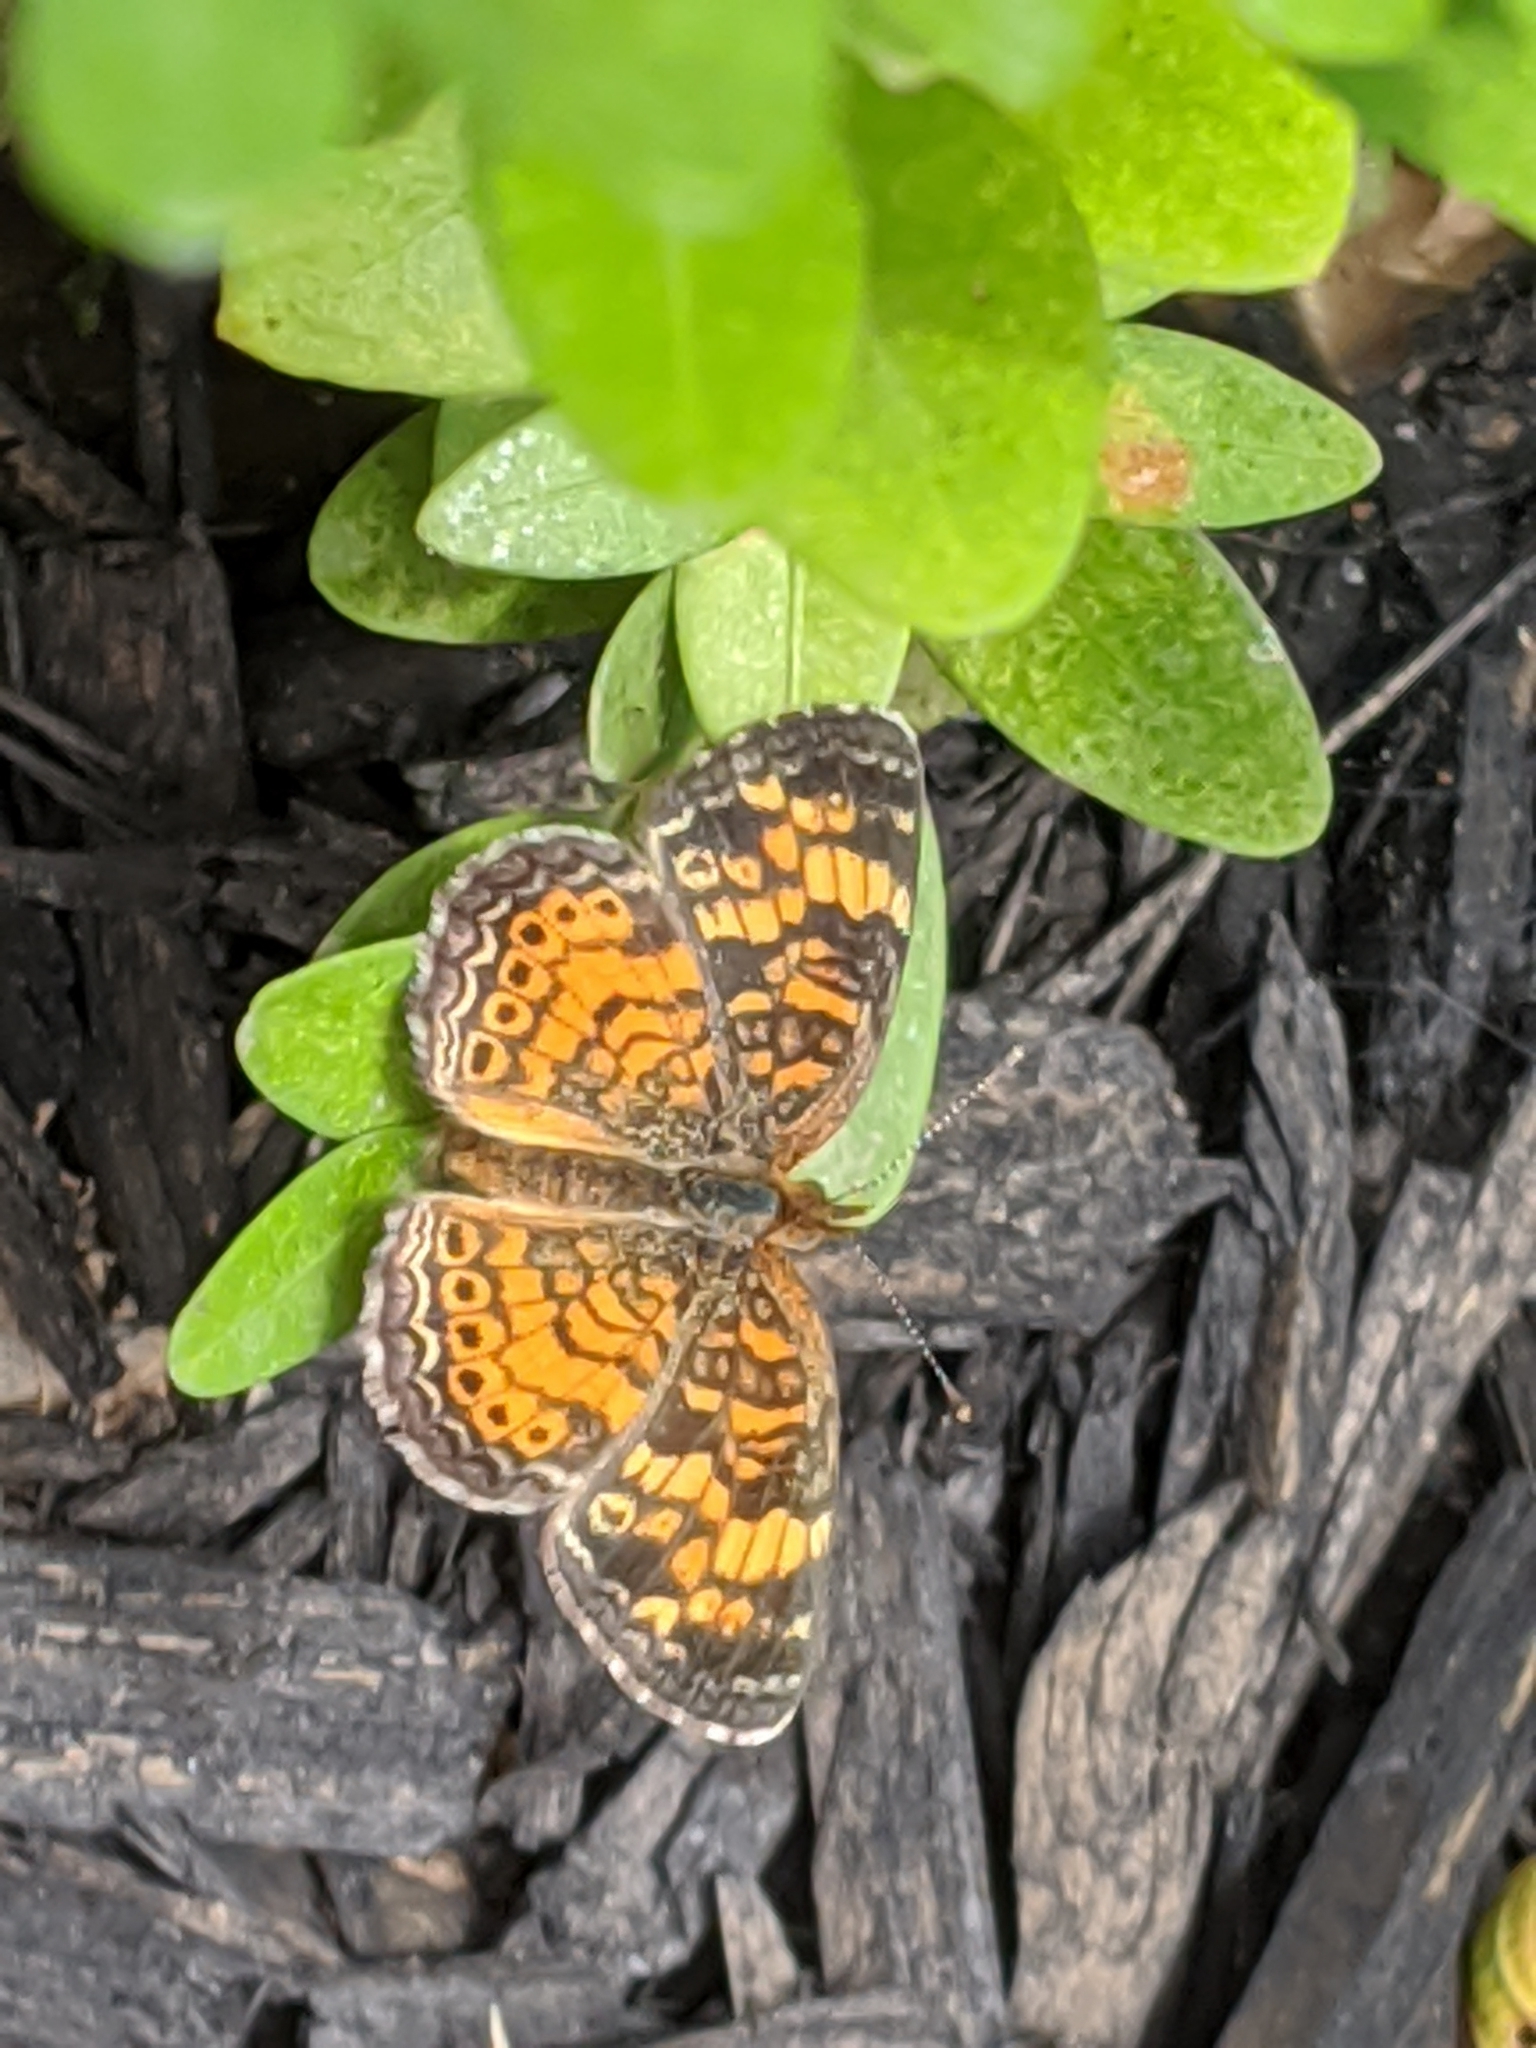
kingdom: Animalia
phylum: Arthropoda
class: Insecta
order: Lepidoptera
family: Nymphalidae
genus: Phyciodes
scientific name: Phyciodes tharos
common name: Pearl crescent
